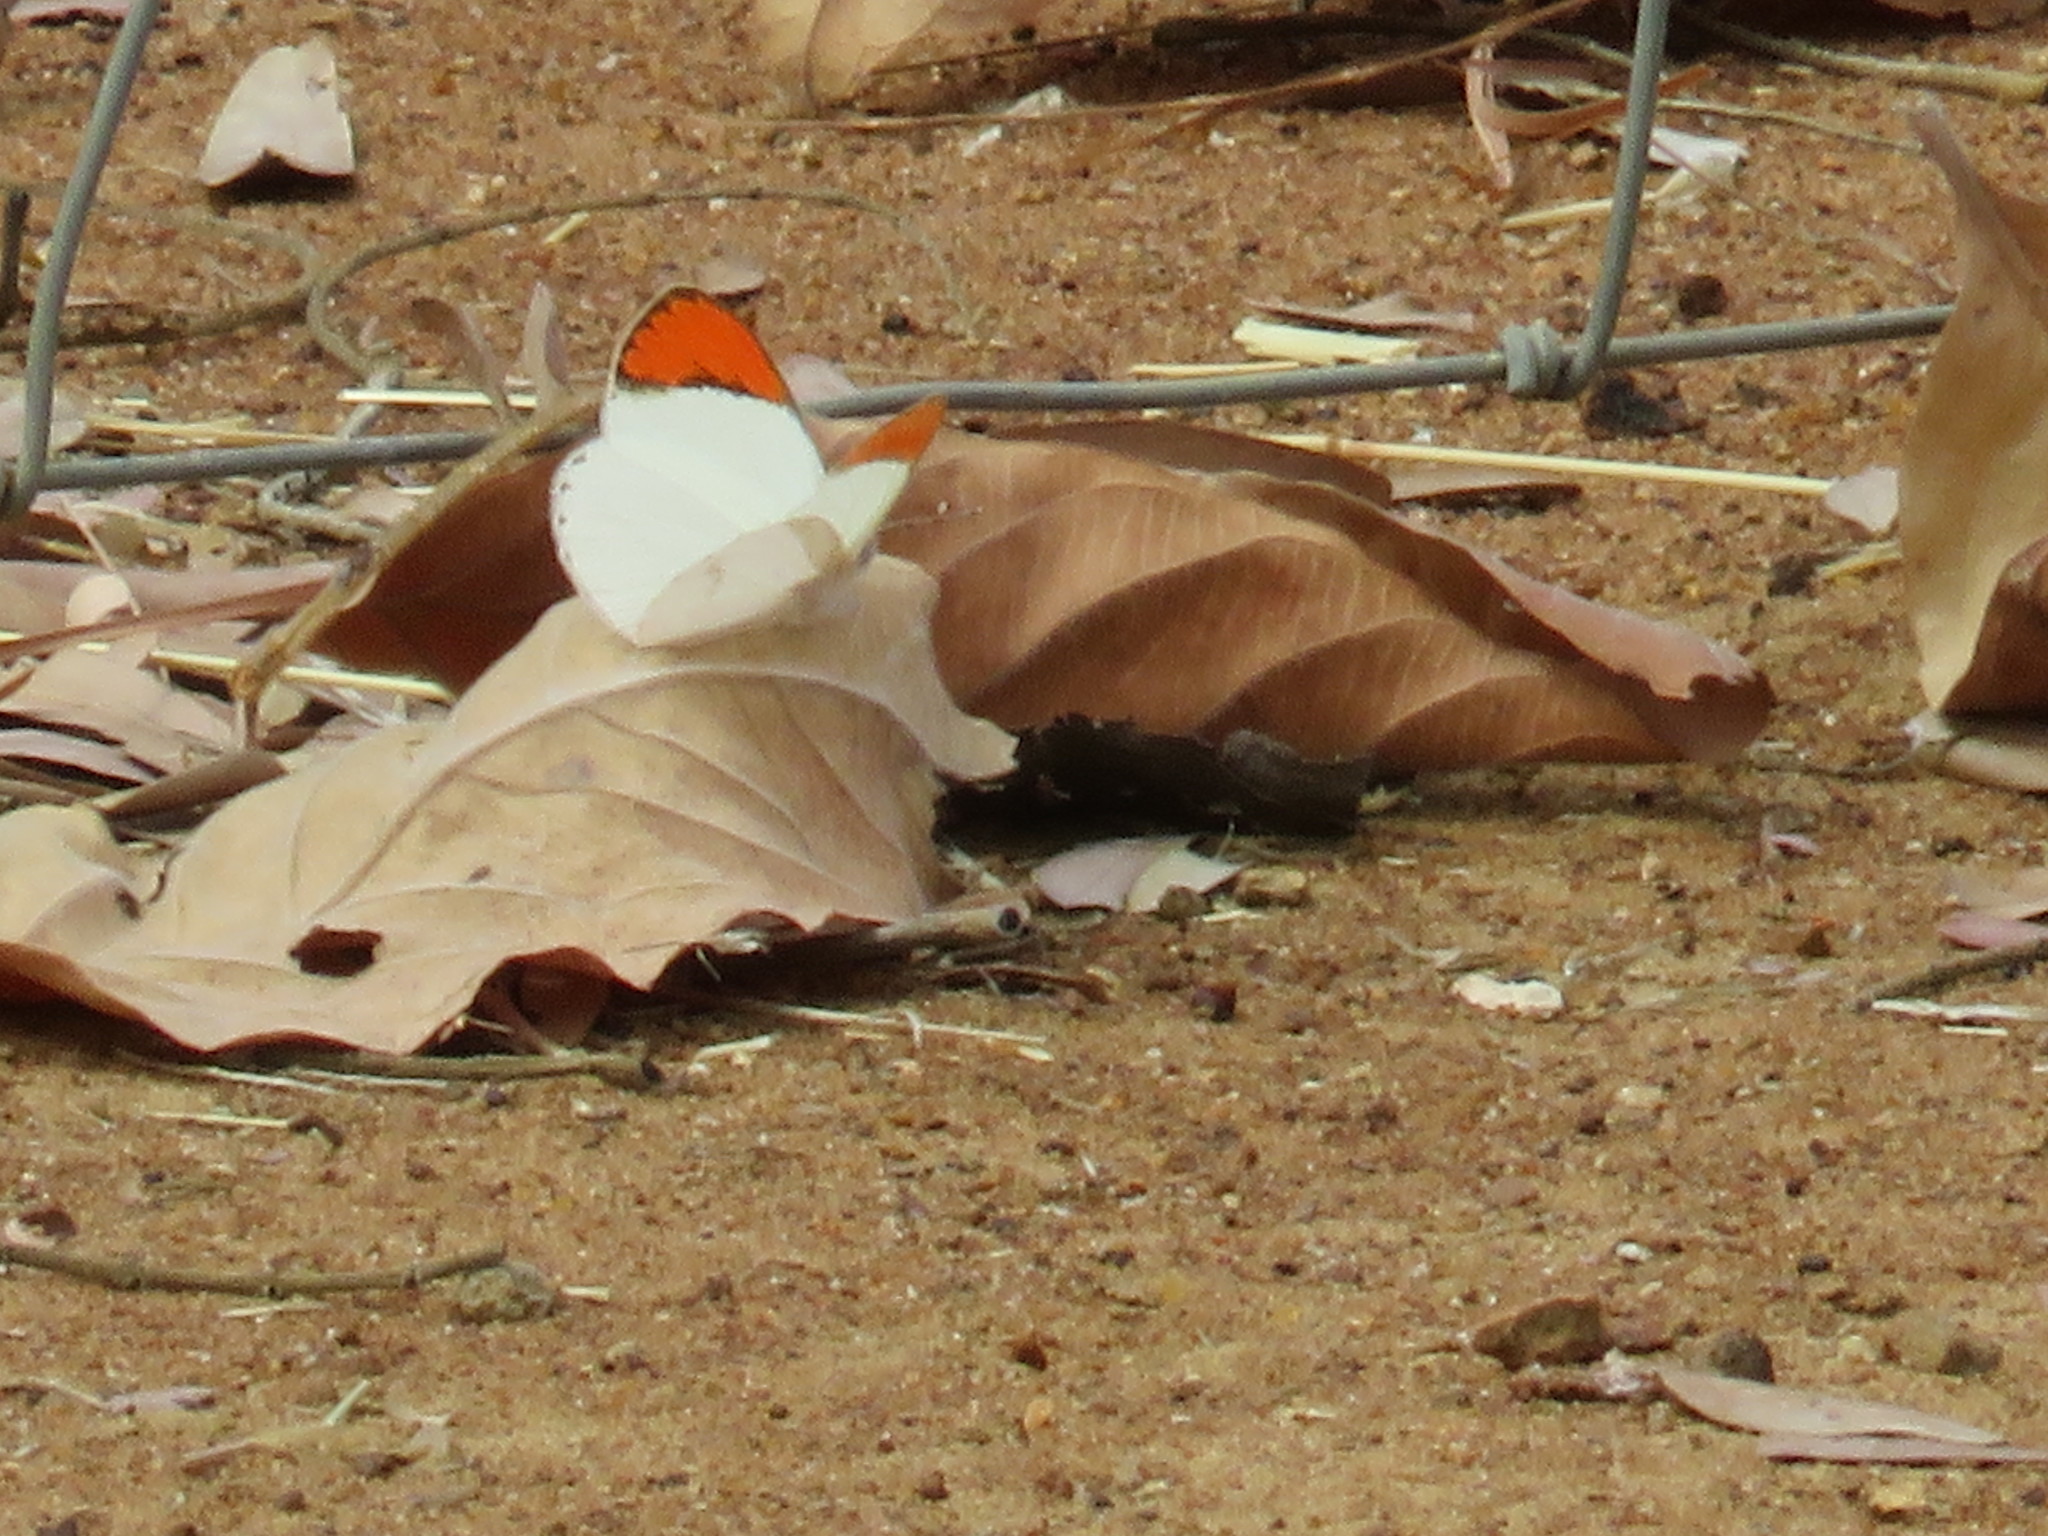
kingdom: Animalia
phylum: Arthropoda
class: Insecta
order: Lepidoptera
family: Pieridae
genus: Colotis
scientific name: Colotis euippe
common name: Round-winged orange tip
